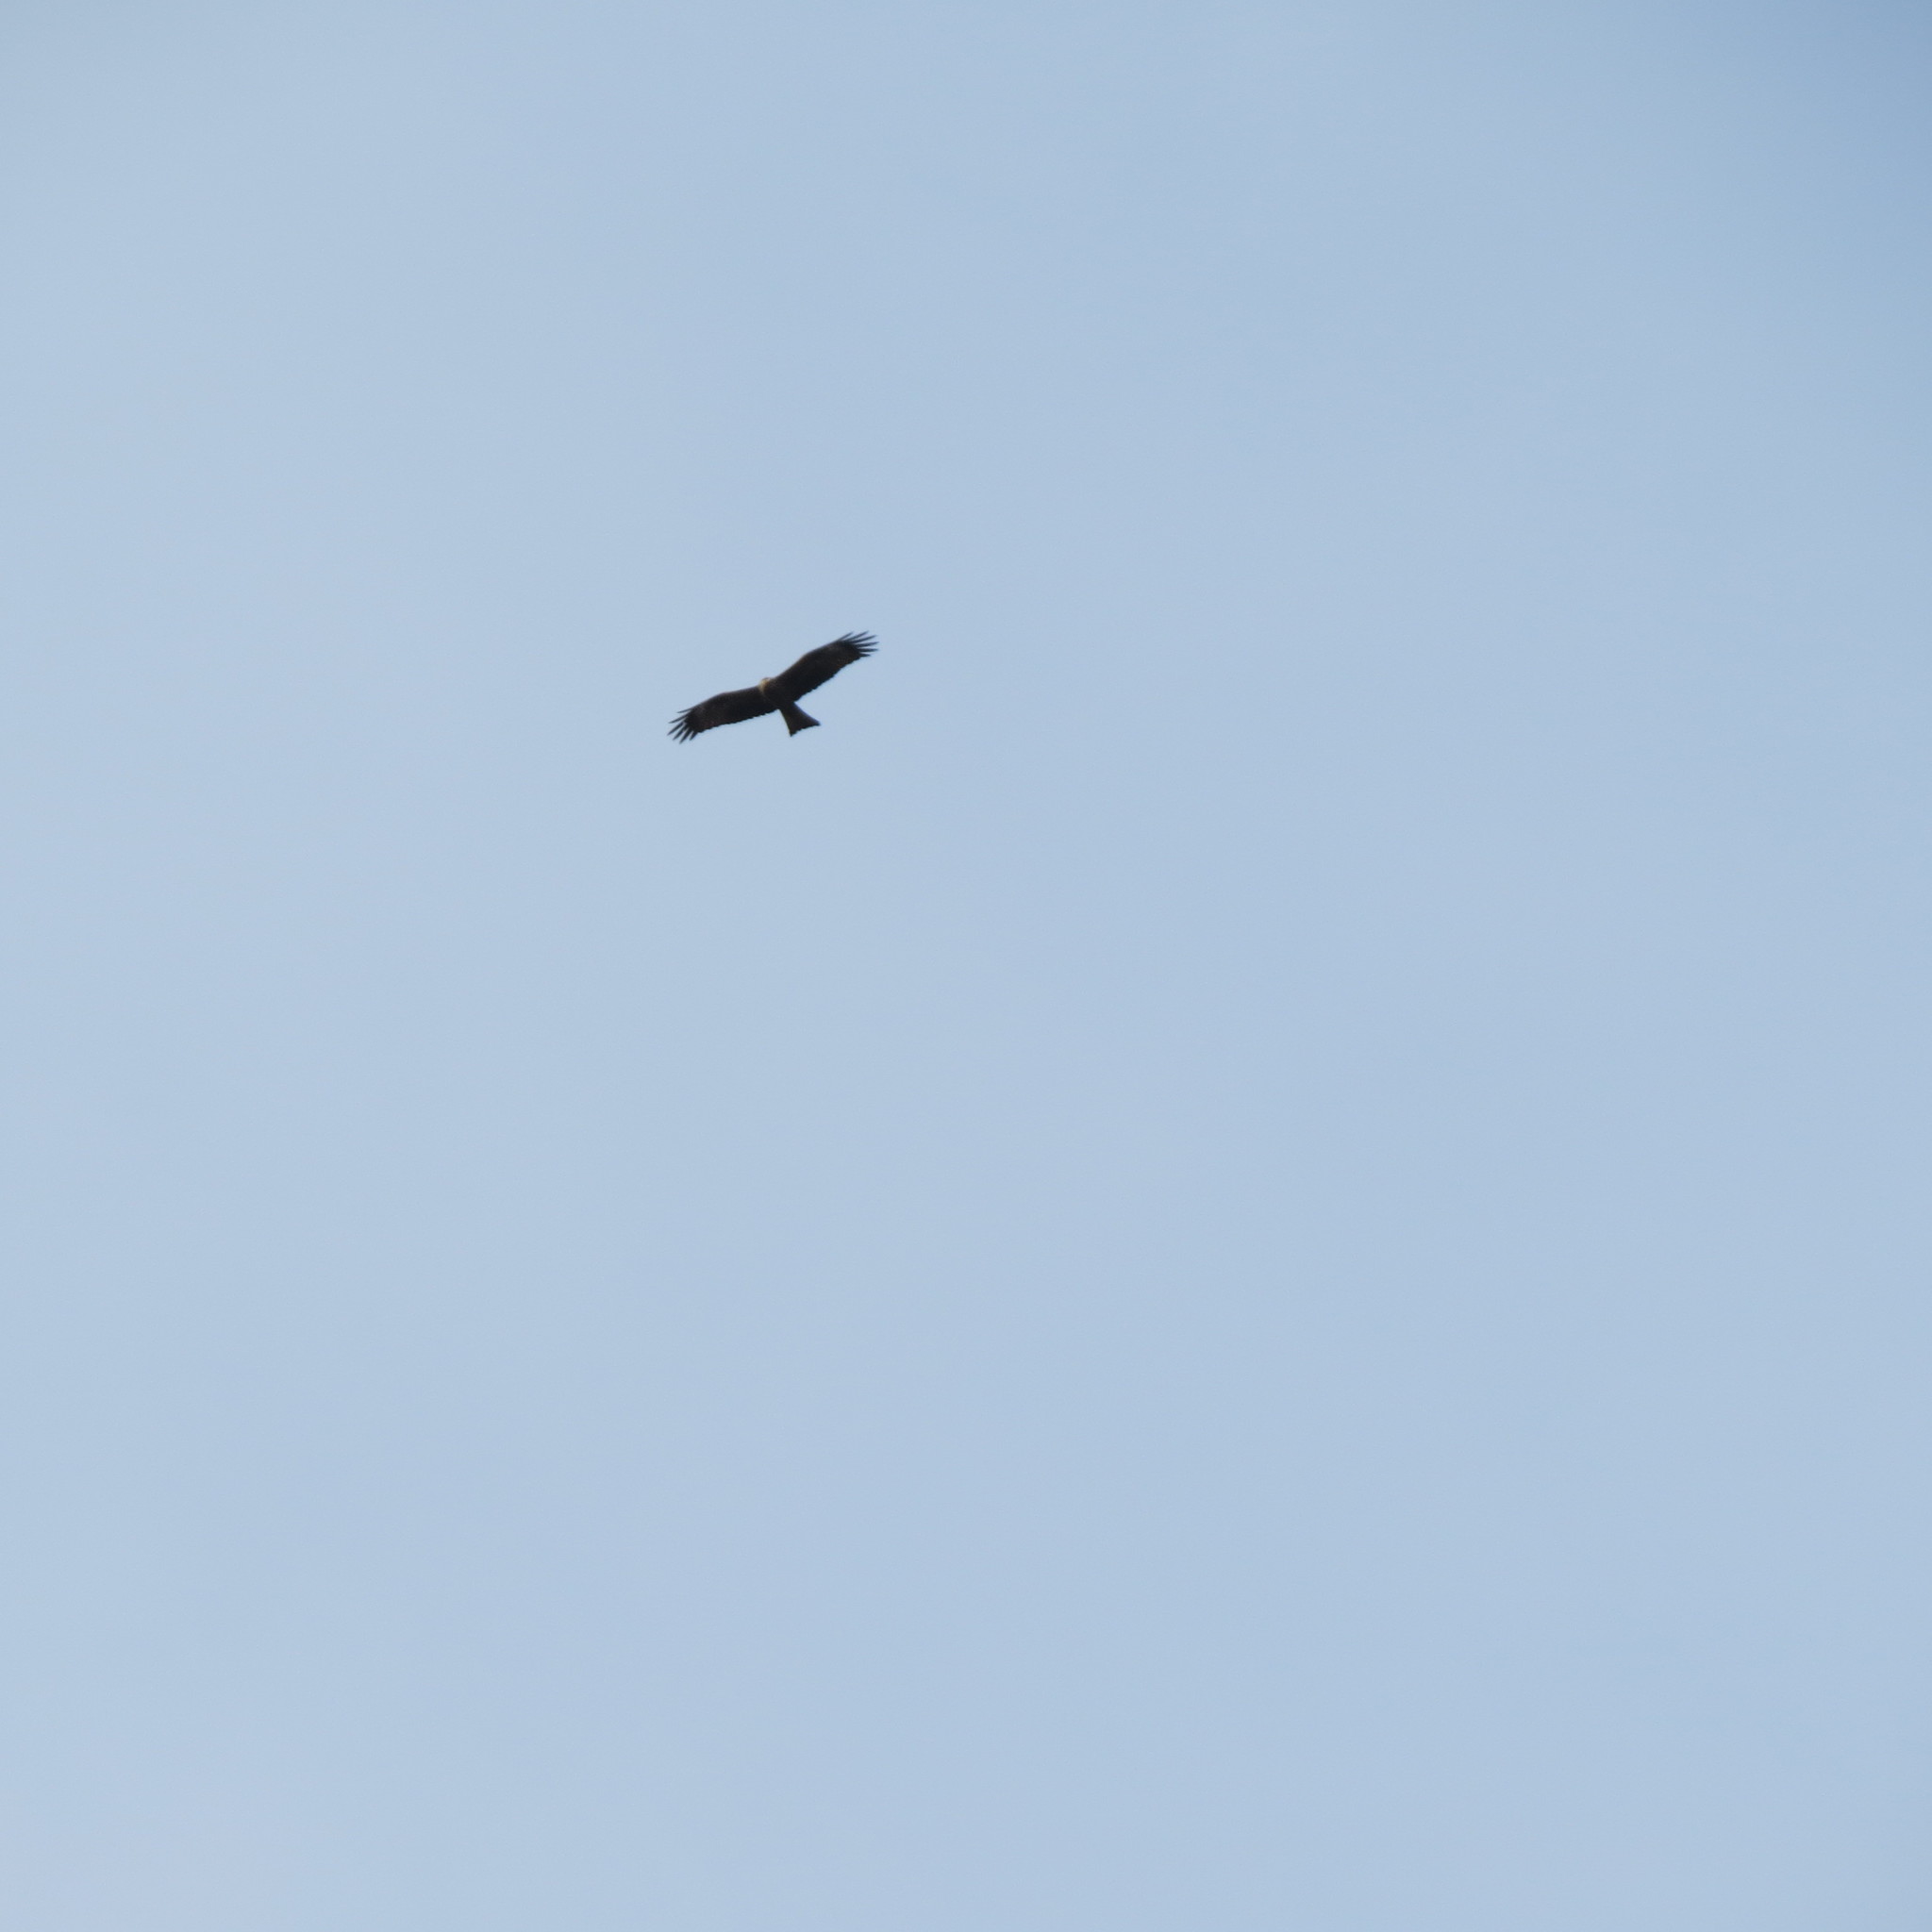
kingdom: Animalia
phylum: Chordata
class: Aves
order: Accipitriformes
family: Accipitridae
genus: Milvus
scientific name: Milvus migrans
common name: Black kite
